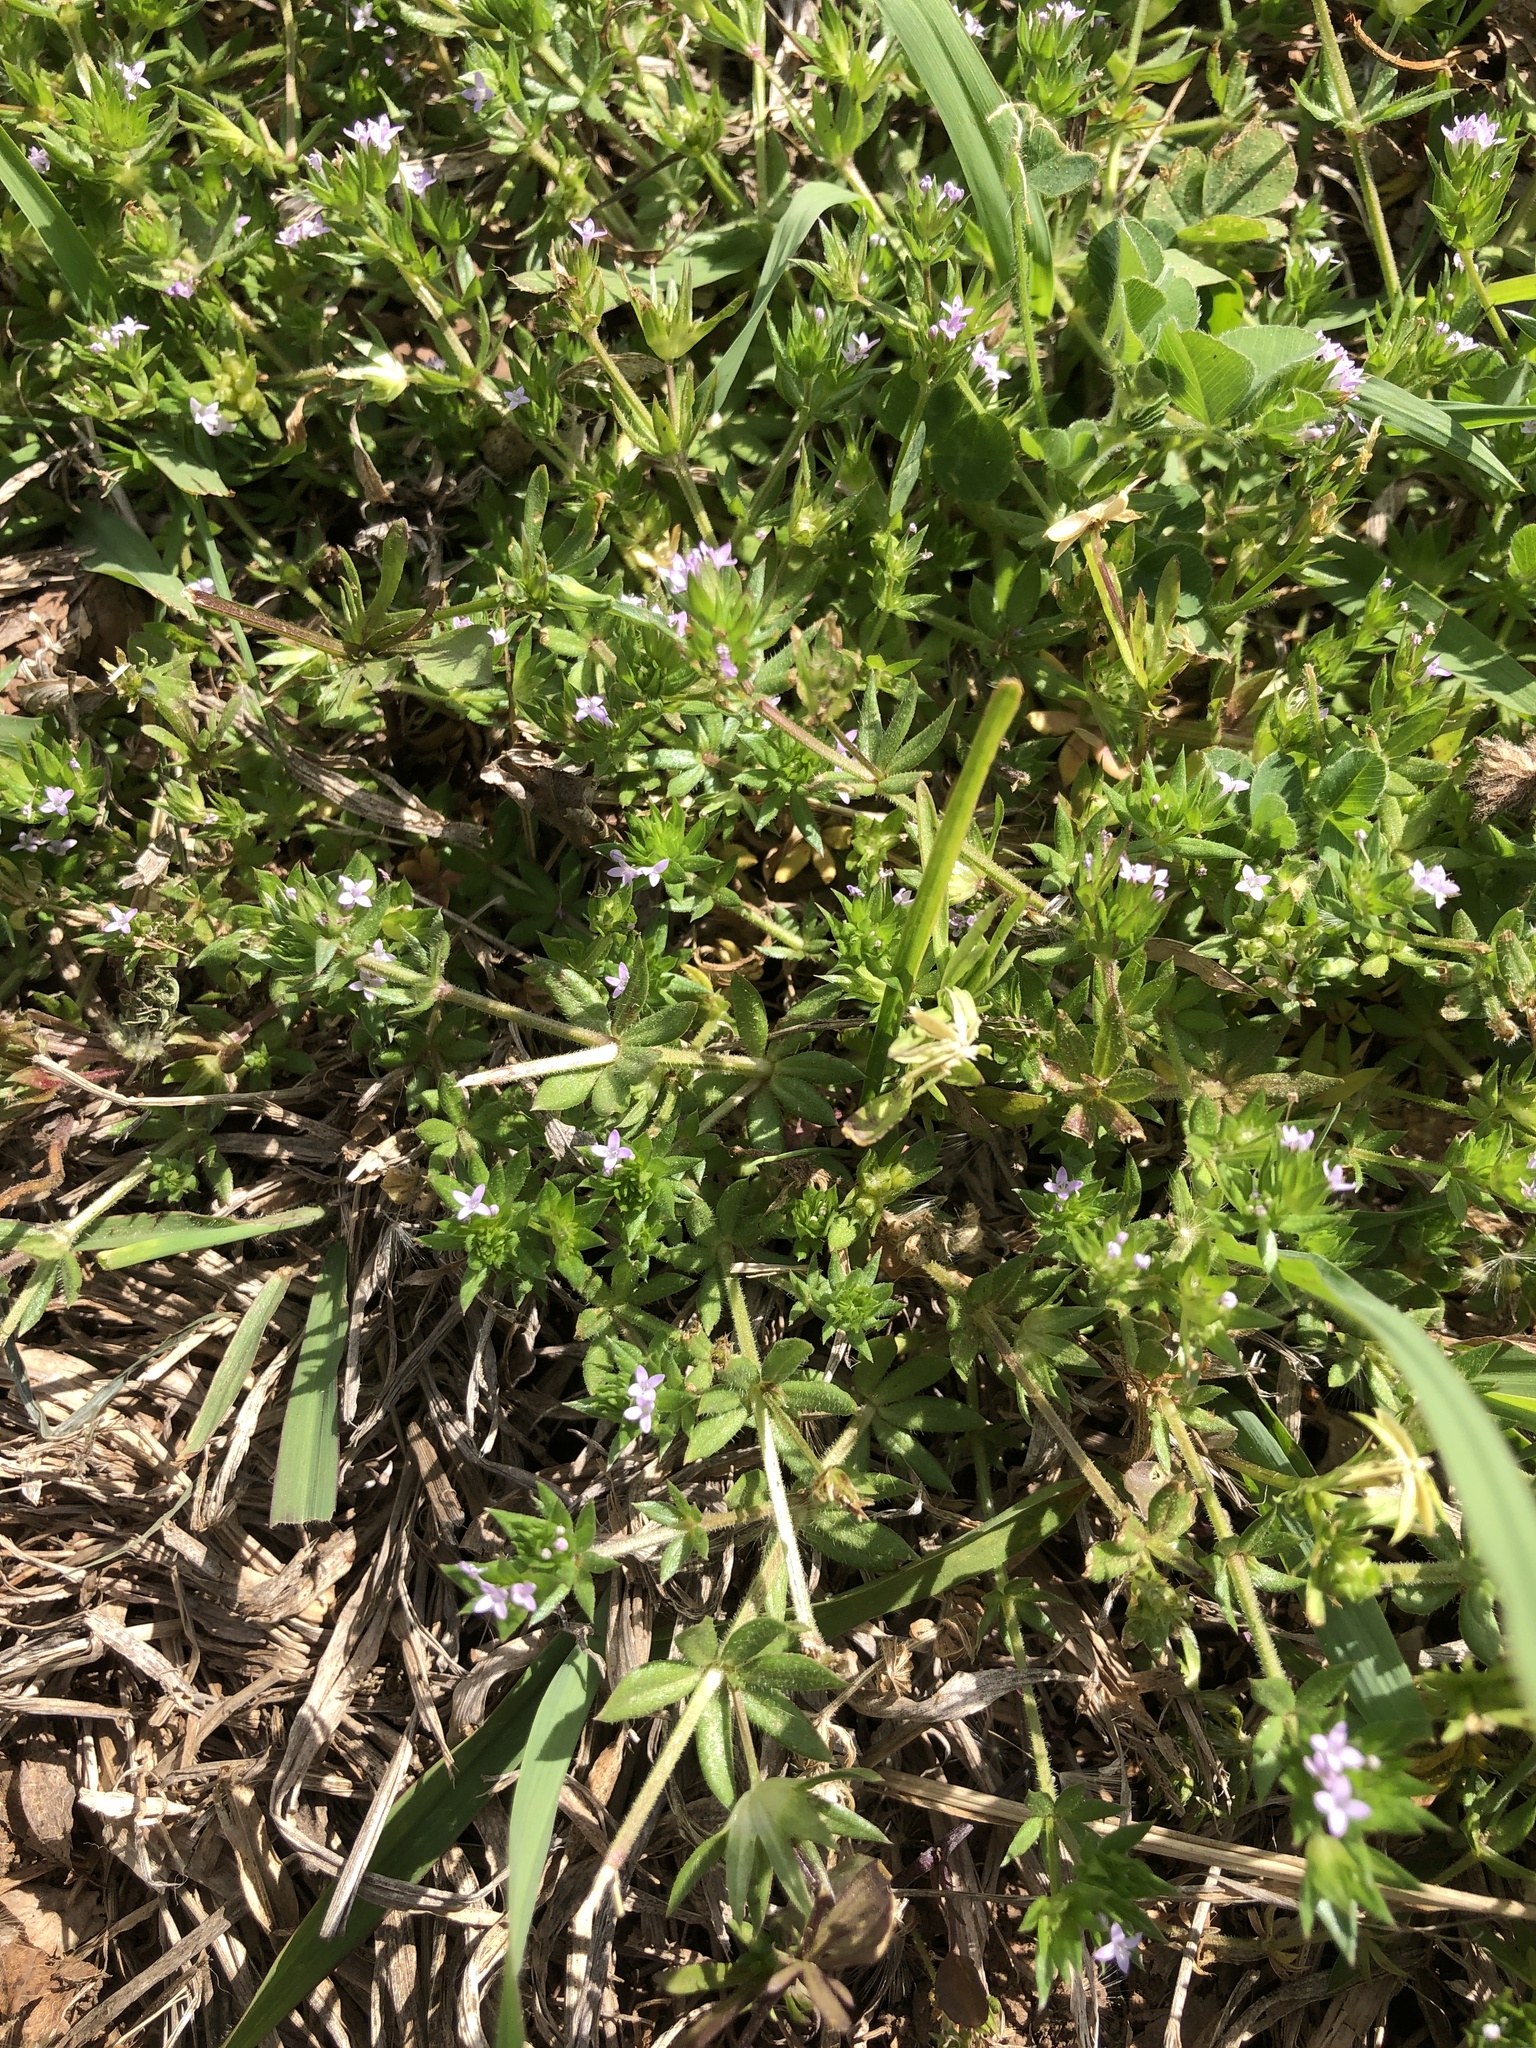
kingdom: Plantae
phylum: Tracheophyta
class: Magnoliopsida
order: Gentianales
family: Rubiaceae
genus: Sherardia
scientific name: Sherardia arvensis
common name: Field madder
